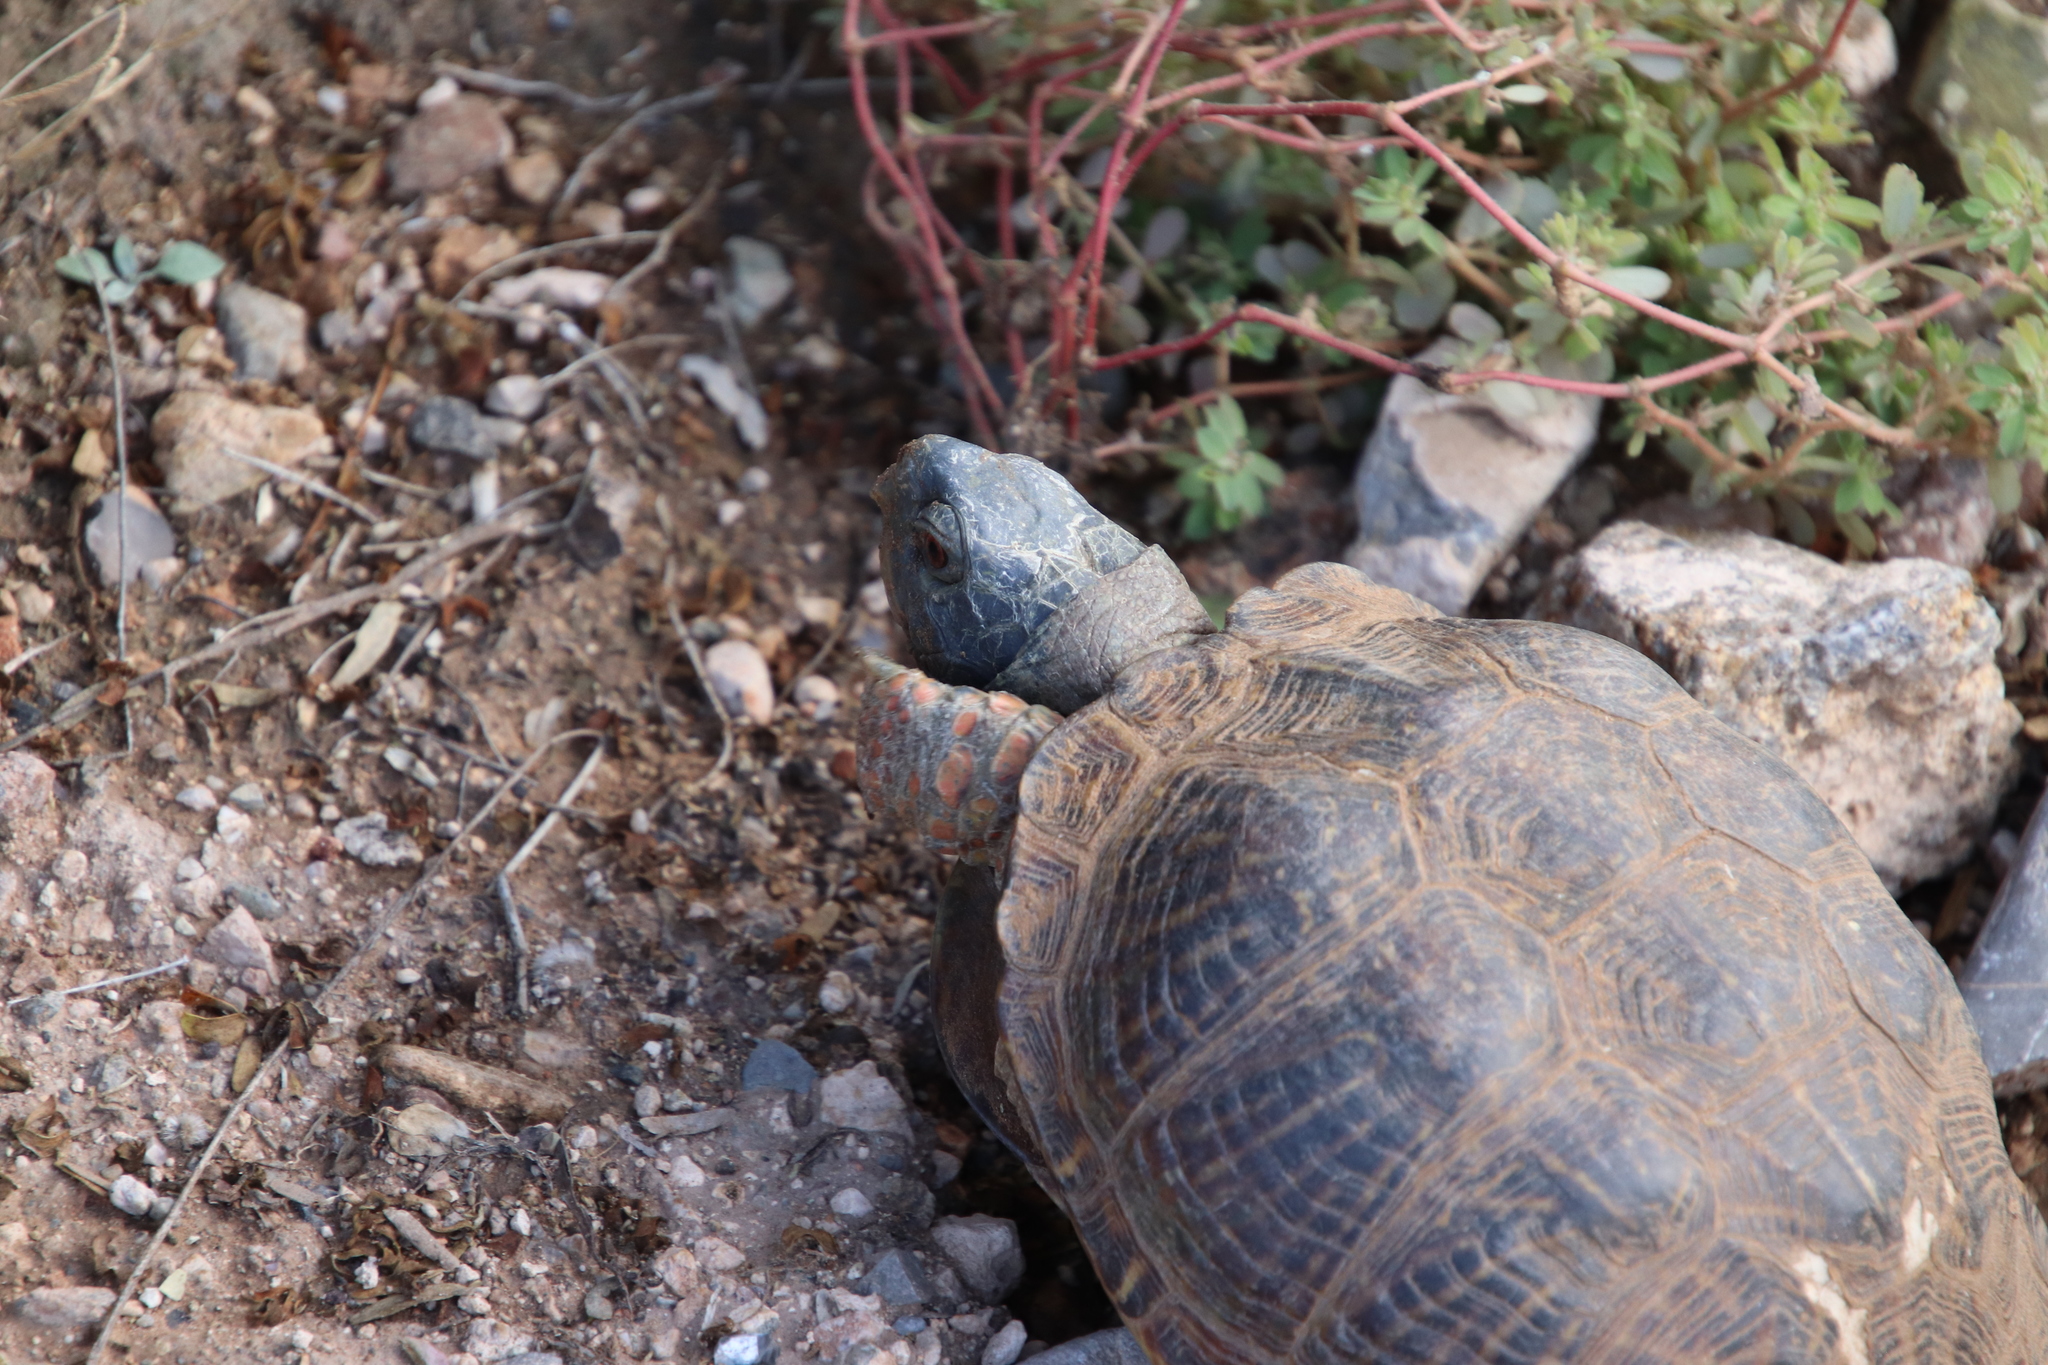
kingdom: Animalia
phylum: Chordata
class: Testudines
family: Emydidae
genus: Terrapene
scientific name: Terrapene ornata
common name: Western box turtle
